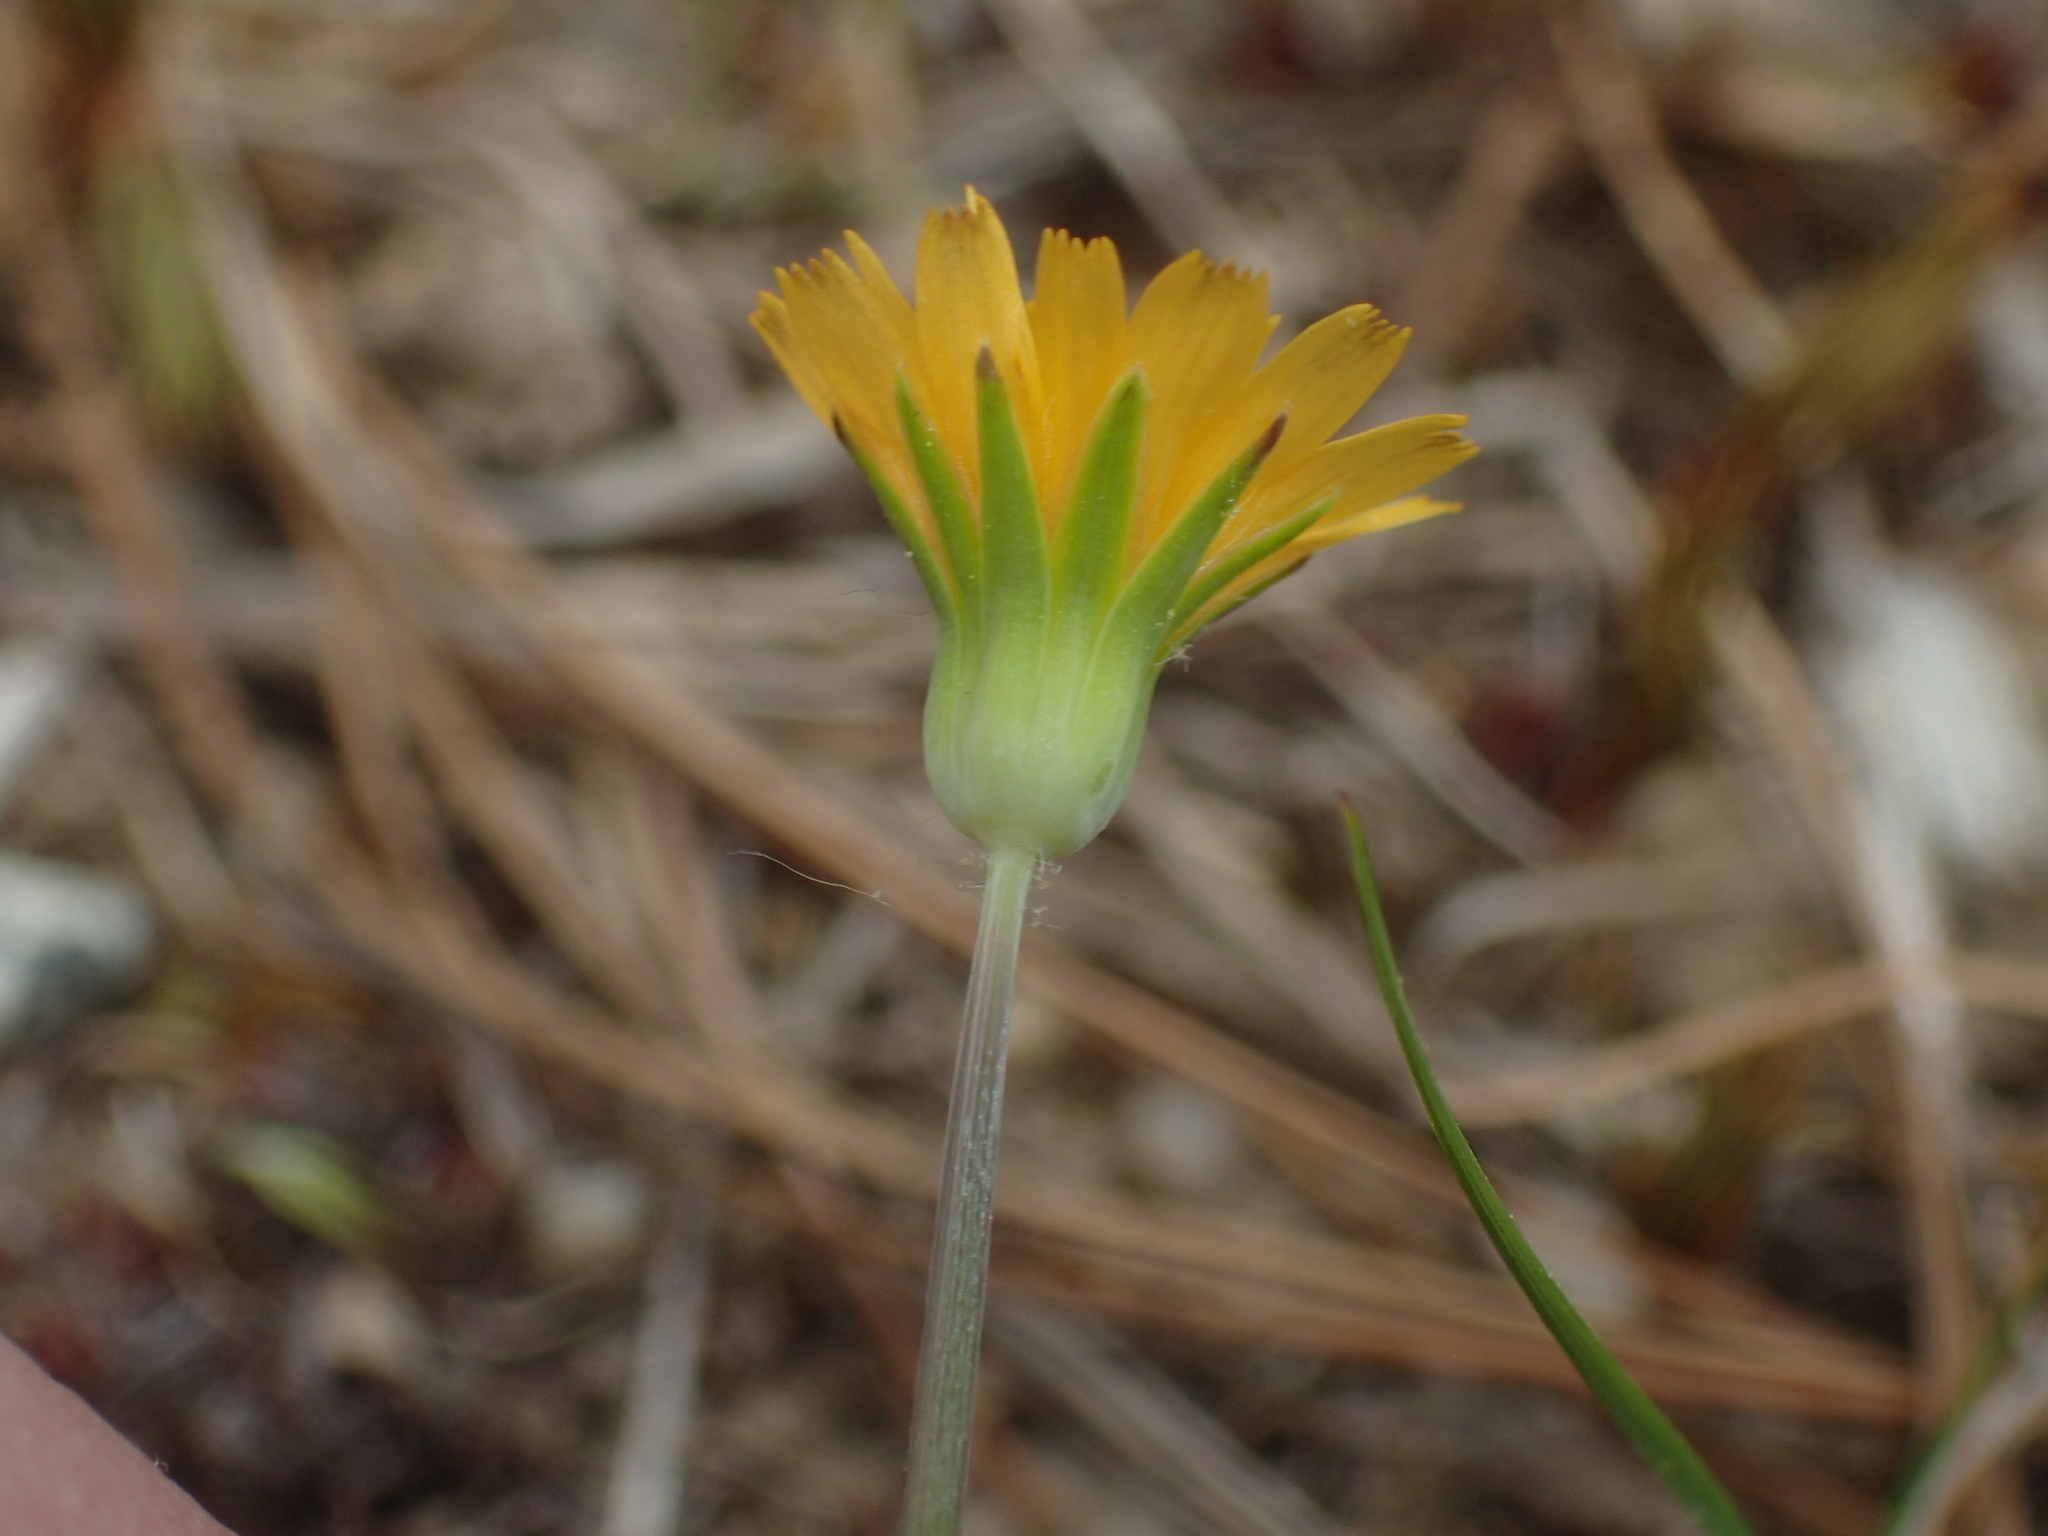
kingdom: Plantae
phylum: Tracheophyta
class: Magnoliopsida
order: Asterales
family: Asteraceae
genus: Krigia
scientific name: Krigia virginica
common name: Virginia dwarf-dandelion
